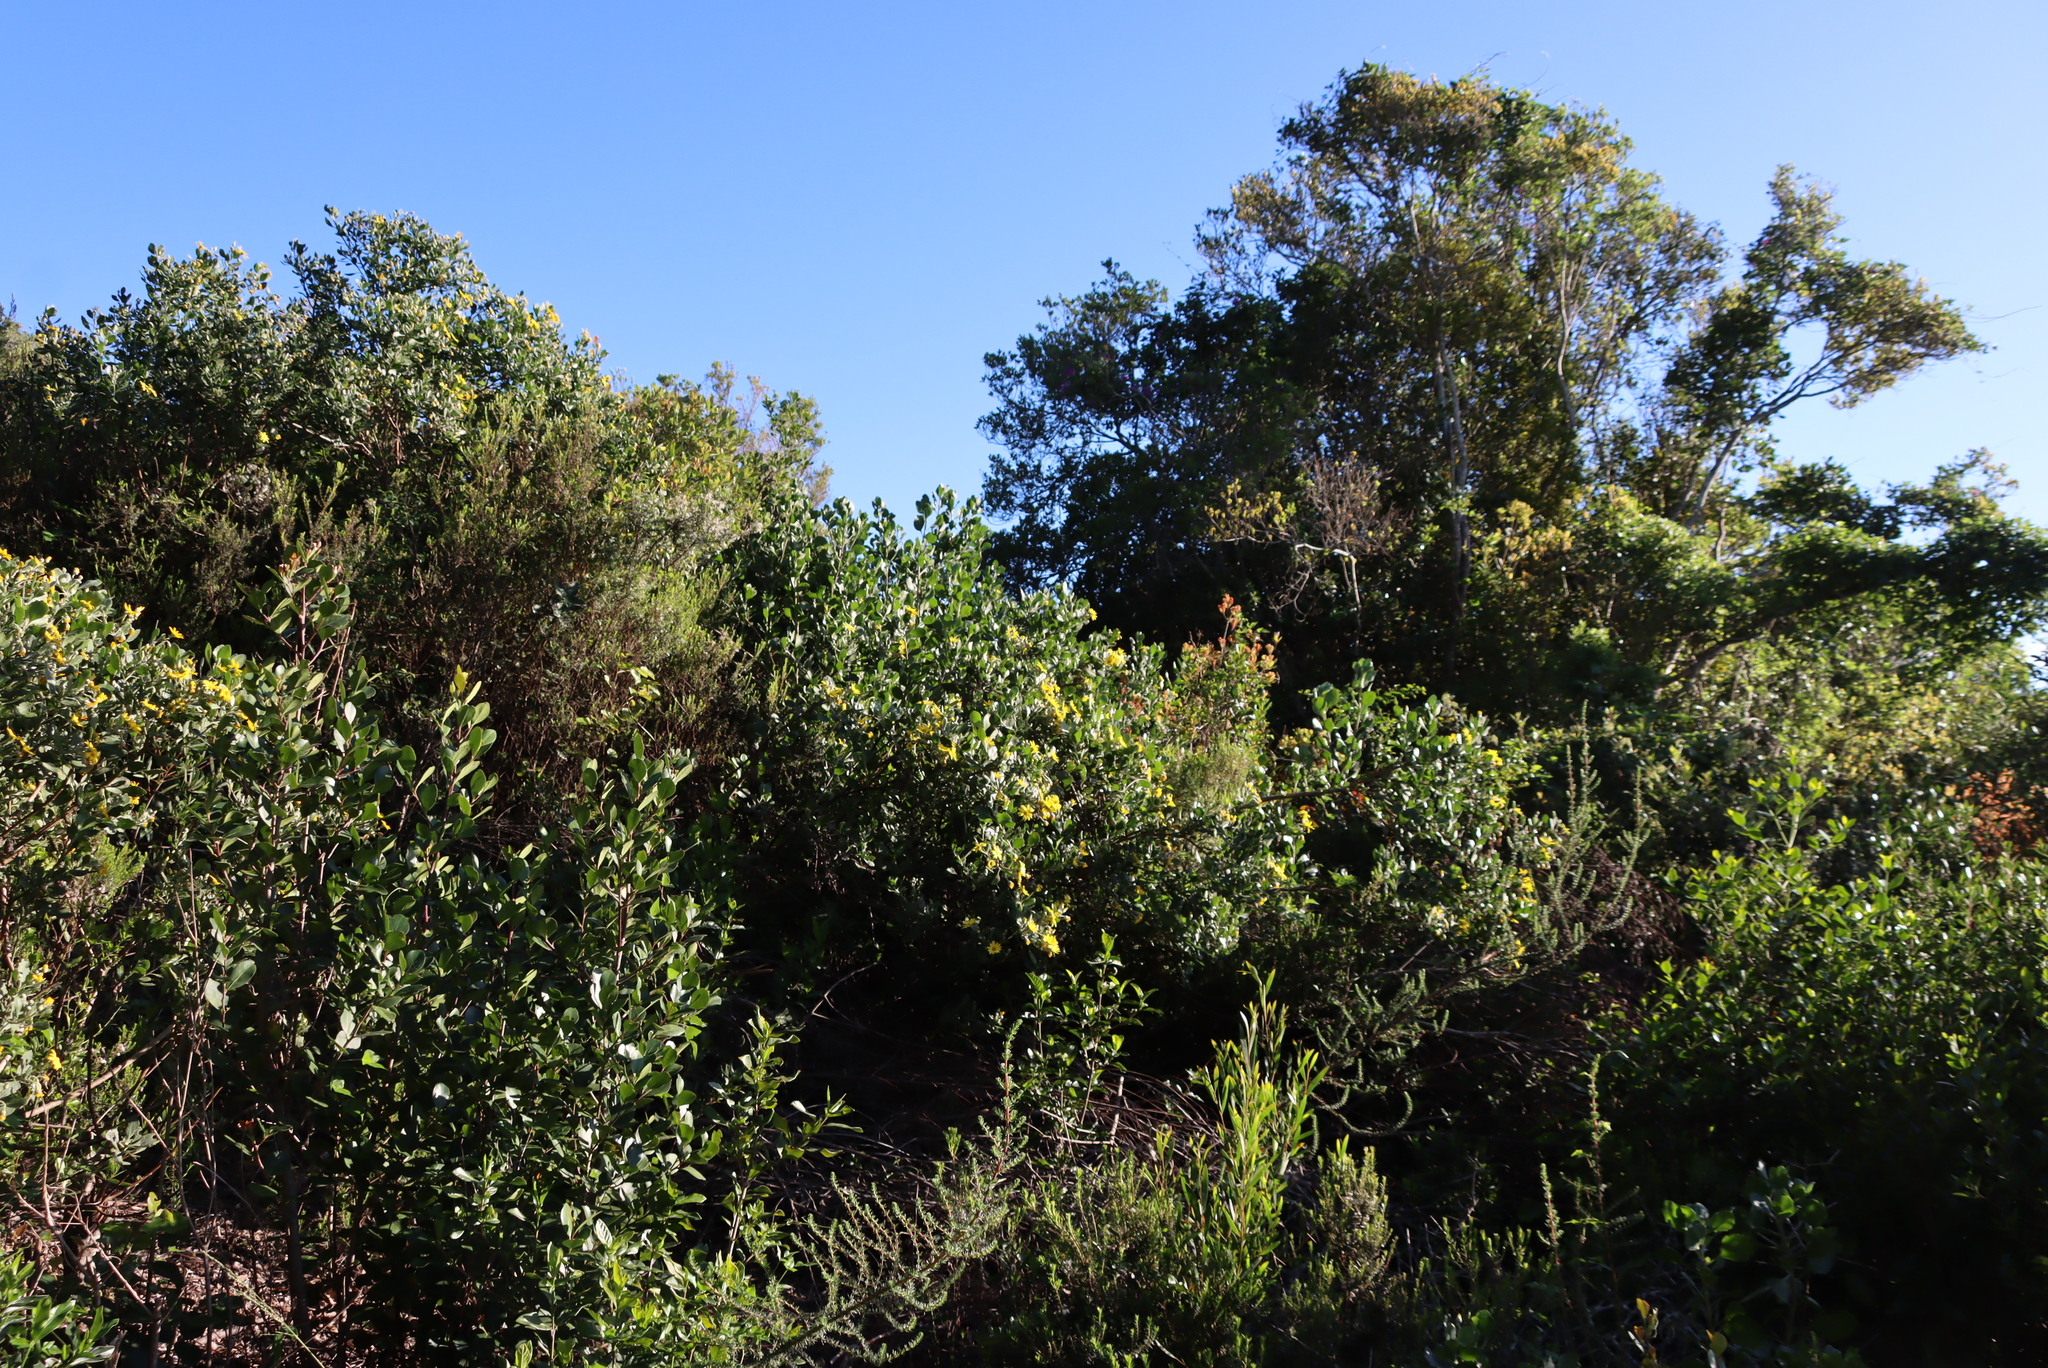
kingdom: Plantae
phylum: Tracheophyta
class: Magnoliopsida
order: Asterales
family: Asteraceae
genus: Osteospermum
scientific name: Osteospermum moniliferum
